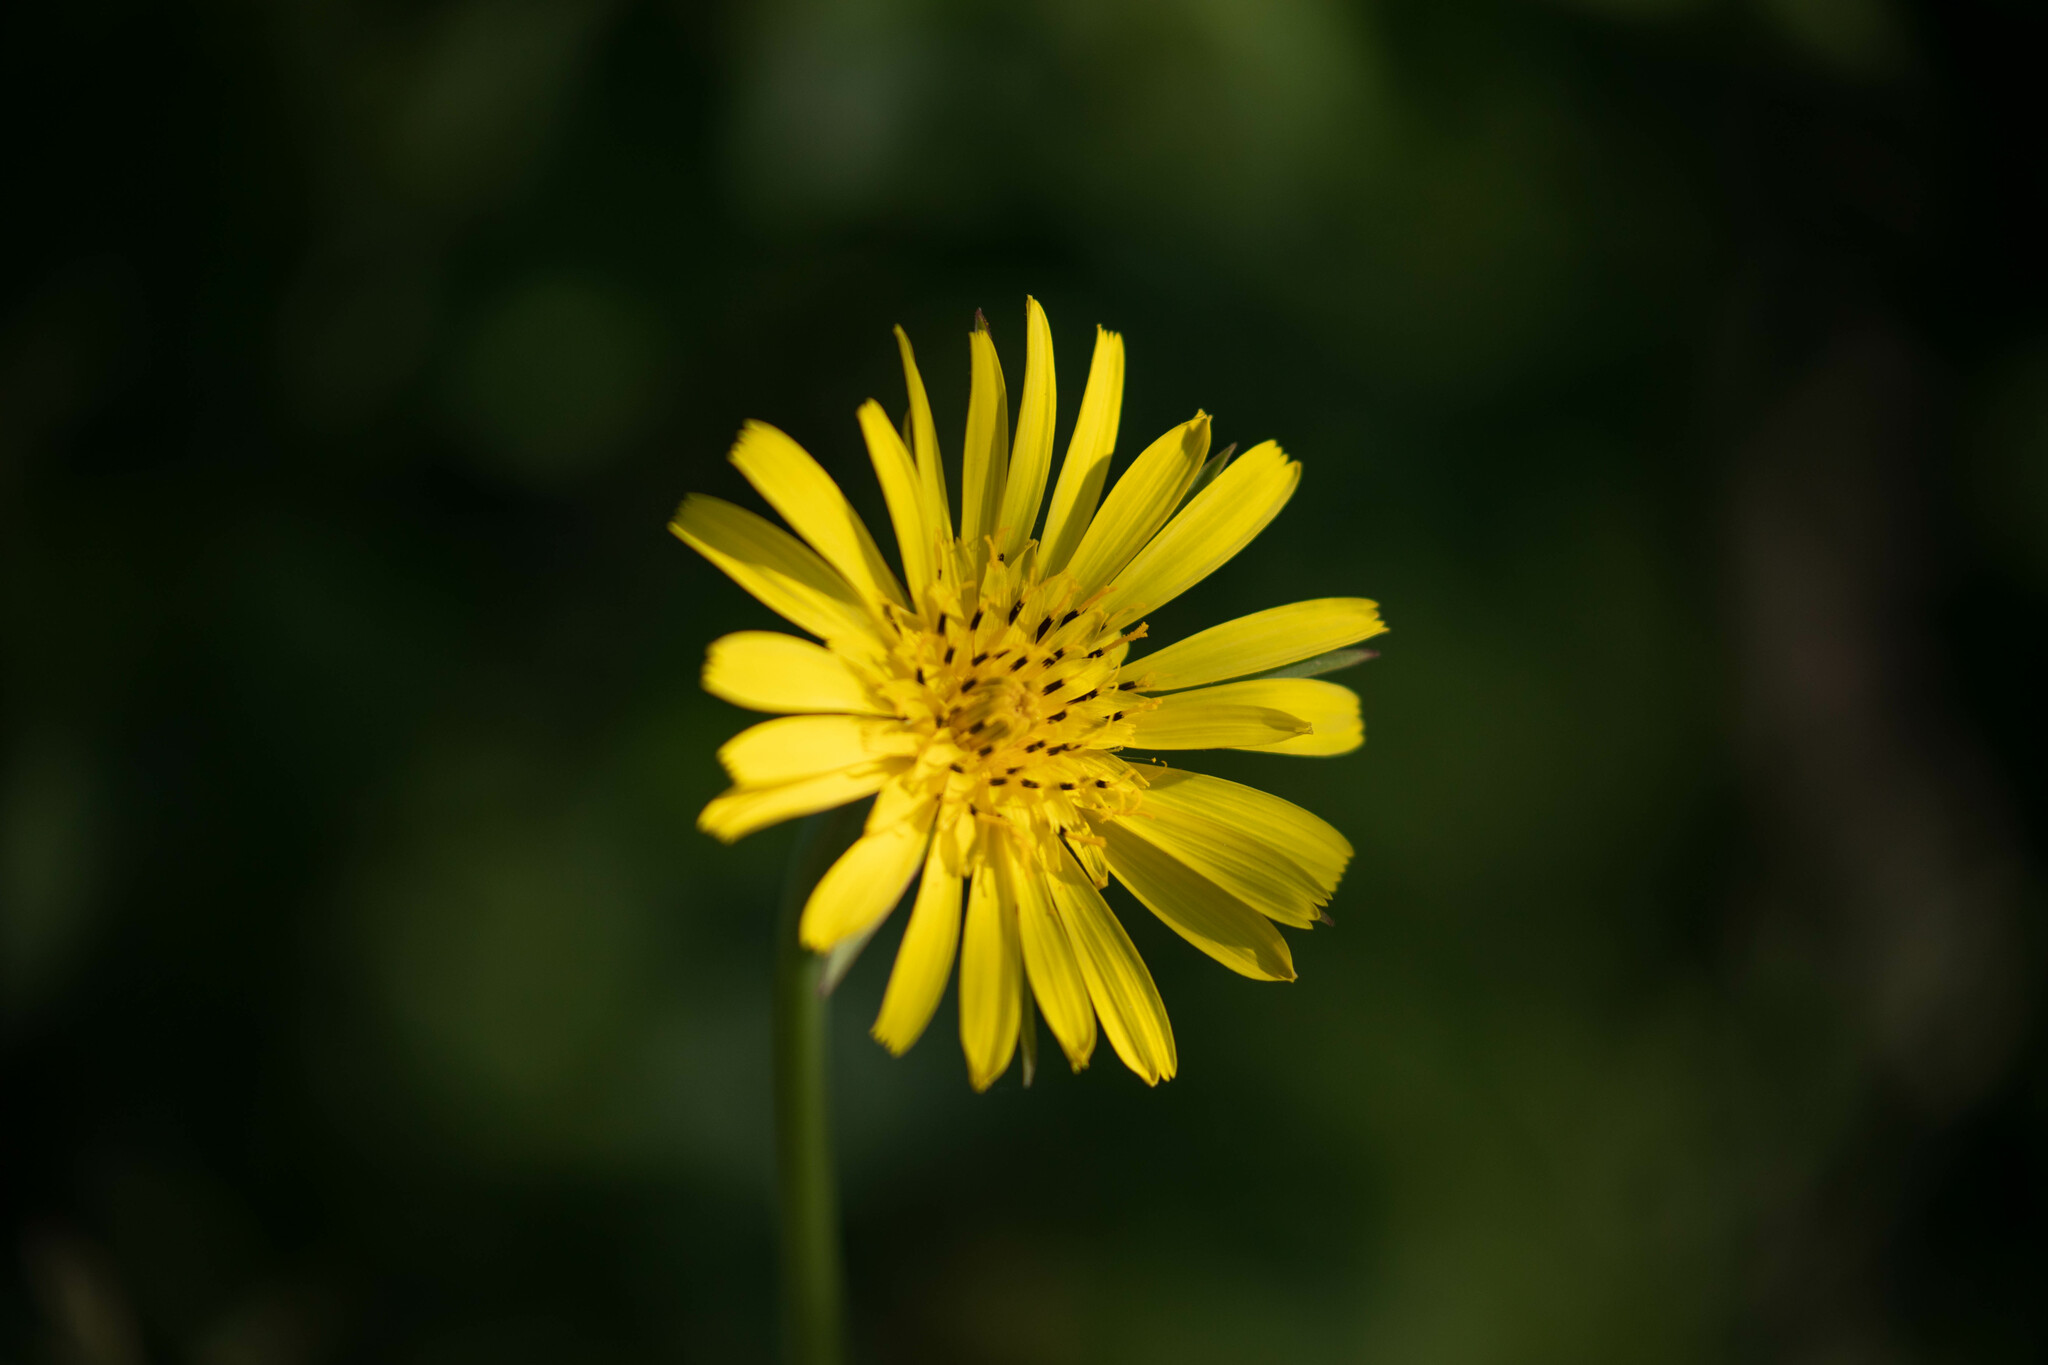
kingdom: Plantae
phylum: Tracheophyta
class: Magnoliopsida
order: Asterales
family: Asteraceae
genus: Tragopogon
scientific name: Tragopogon pratensis
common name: Goat's-beard
